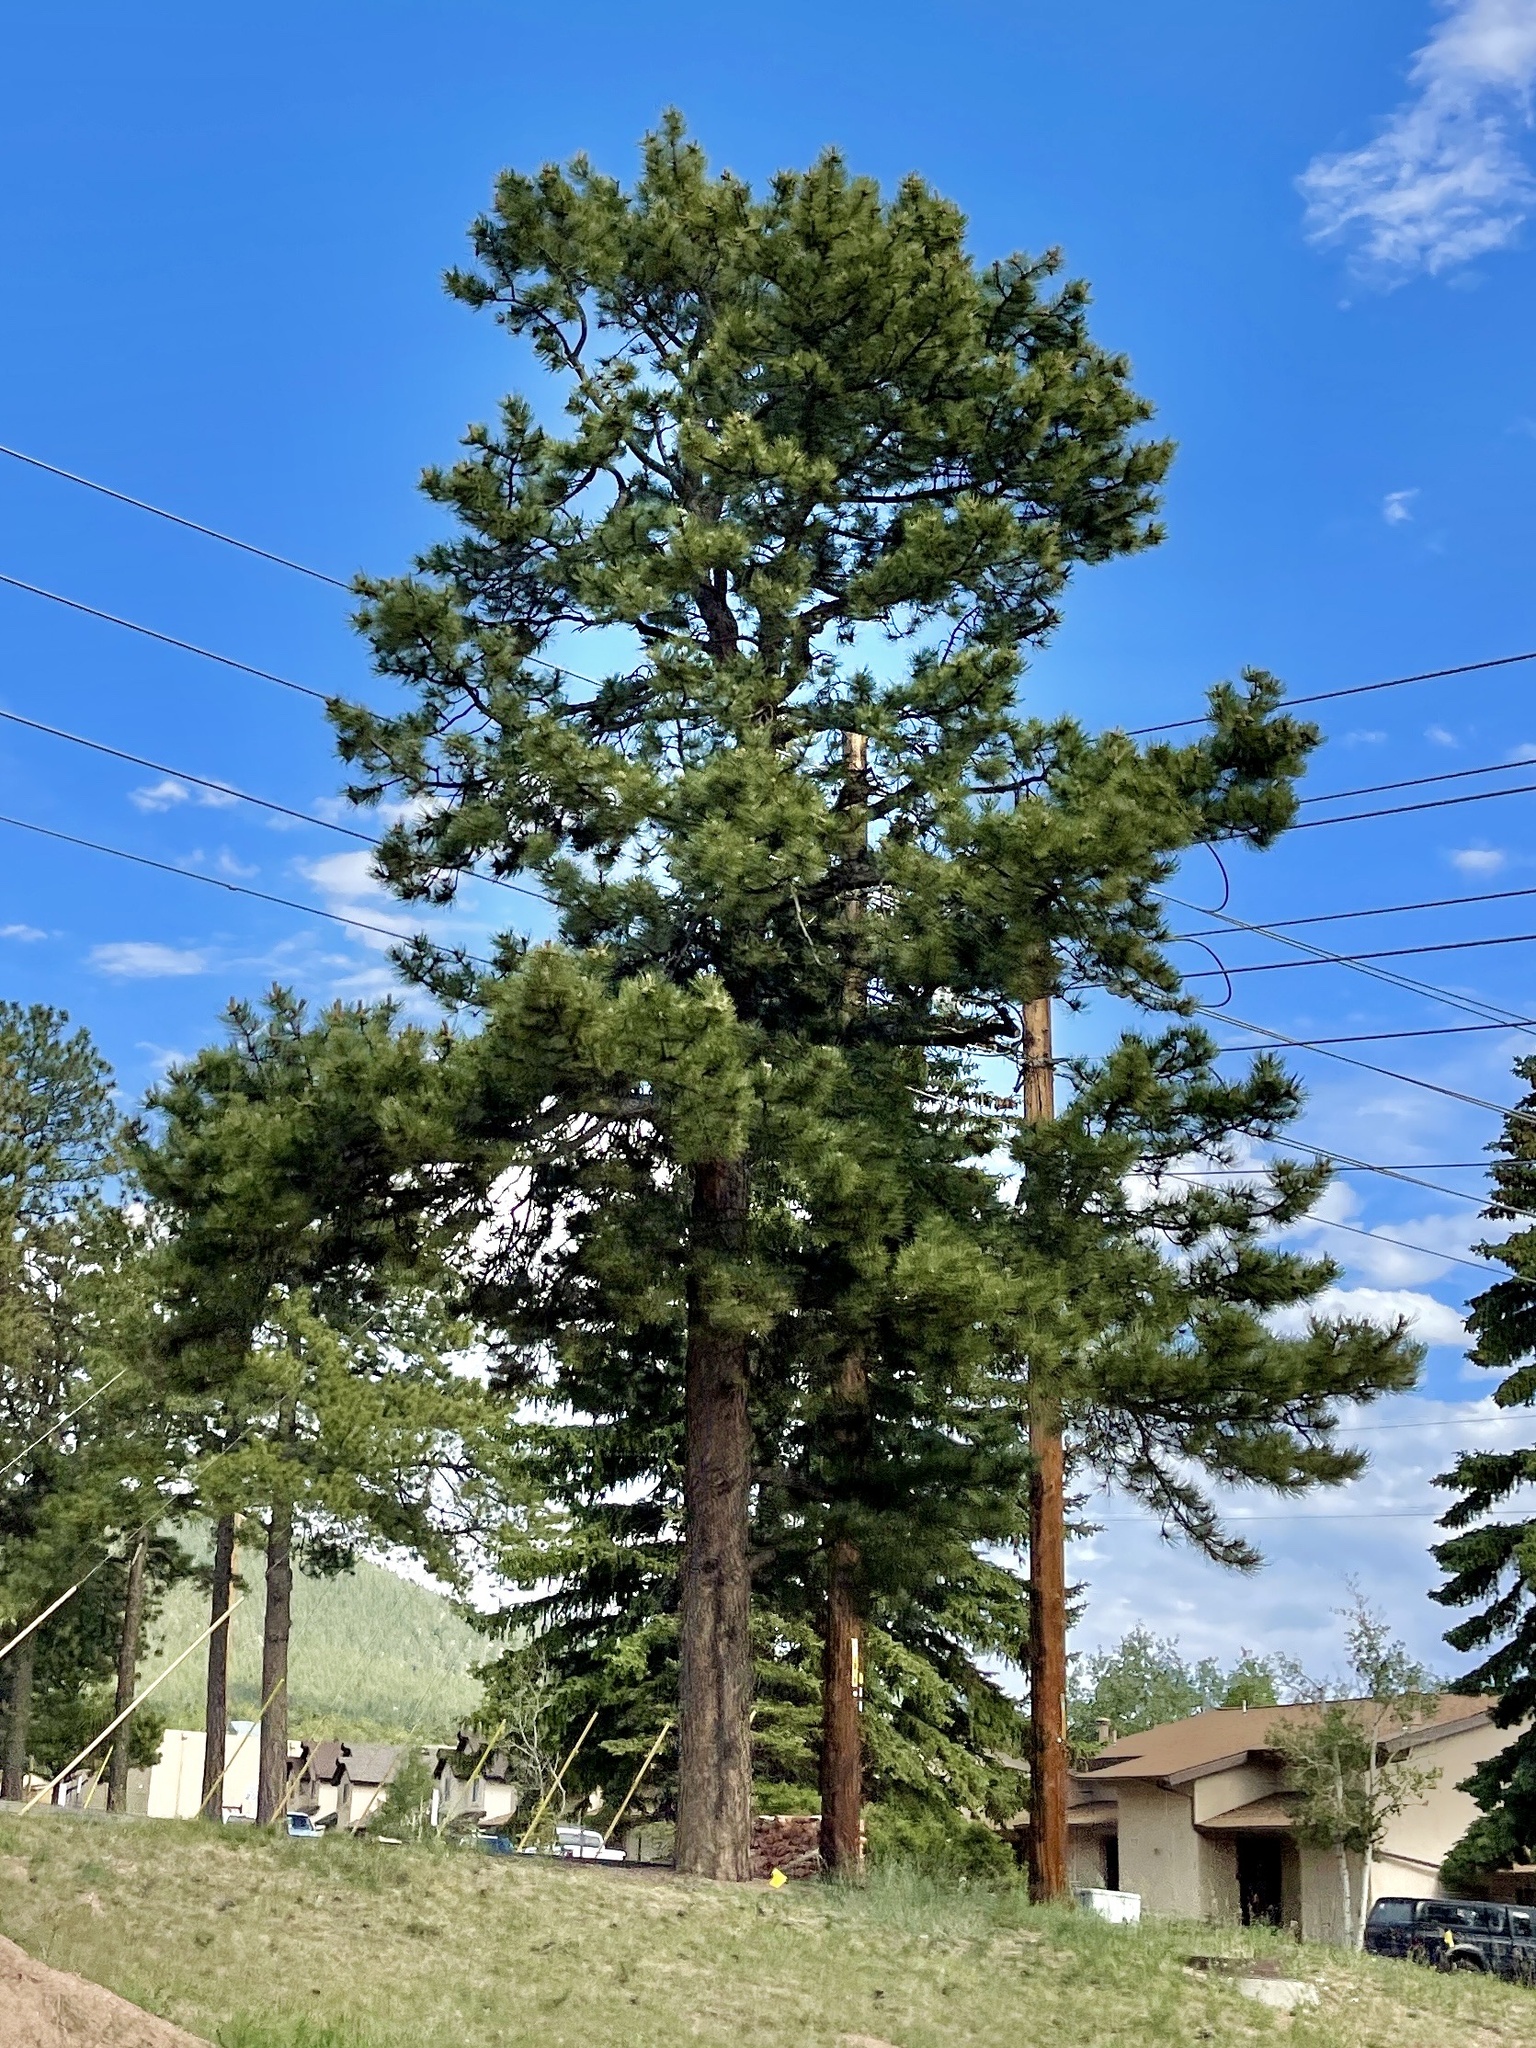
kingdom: Plantae
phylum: Tracheophyta
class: Pinopsida
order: Pinales
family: Pinaceae
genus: Pinus
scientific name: Pinus ponderosa
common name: Western yellow-pine
